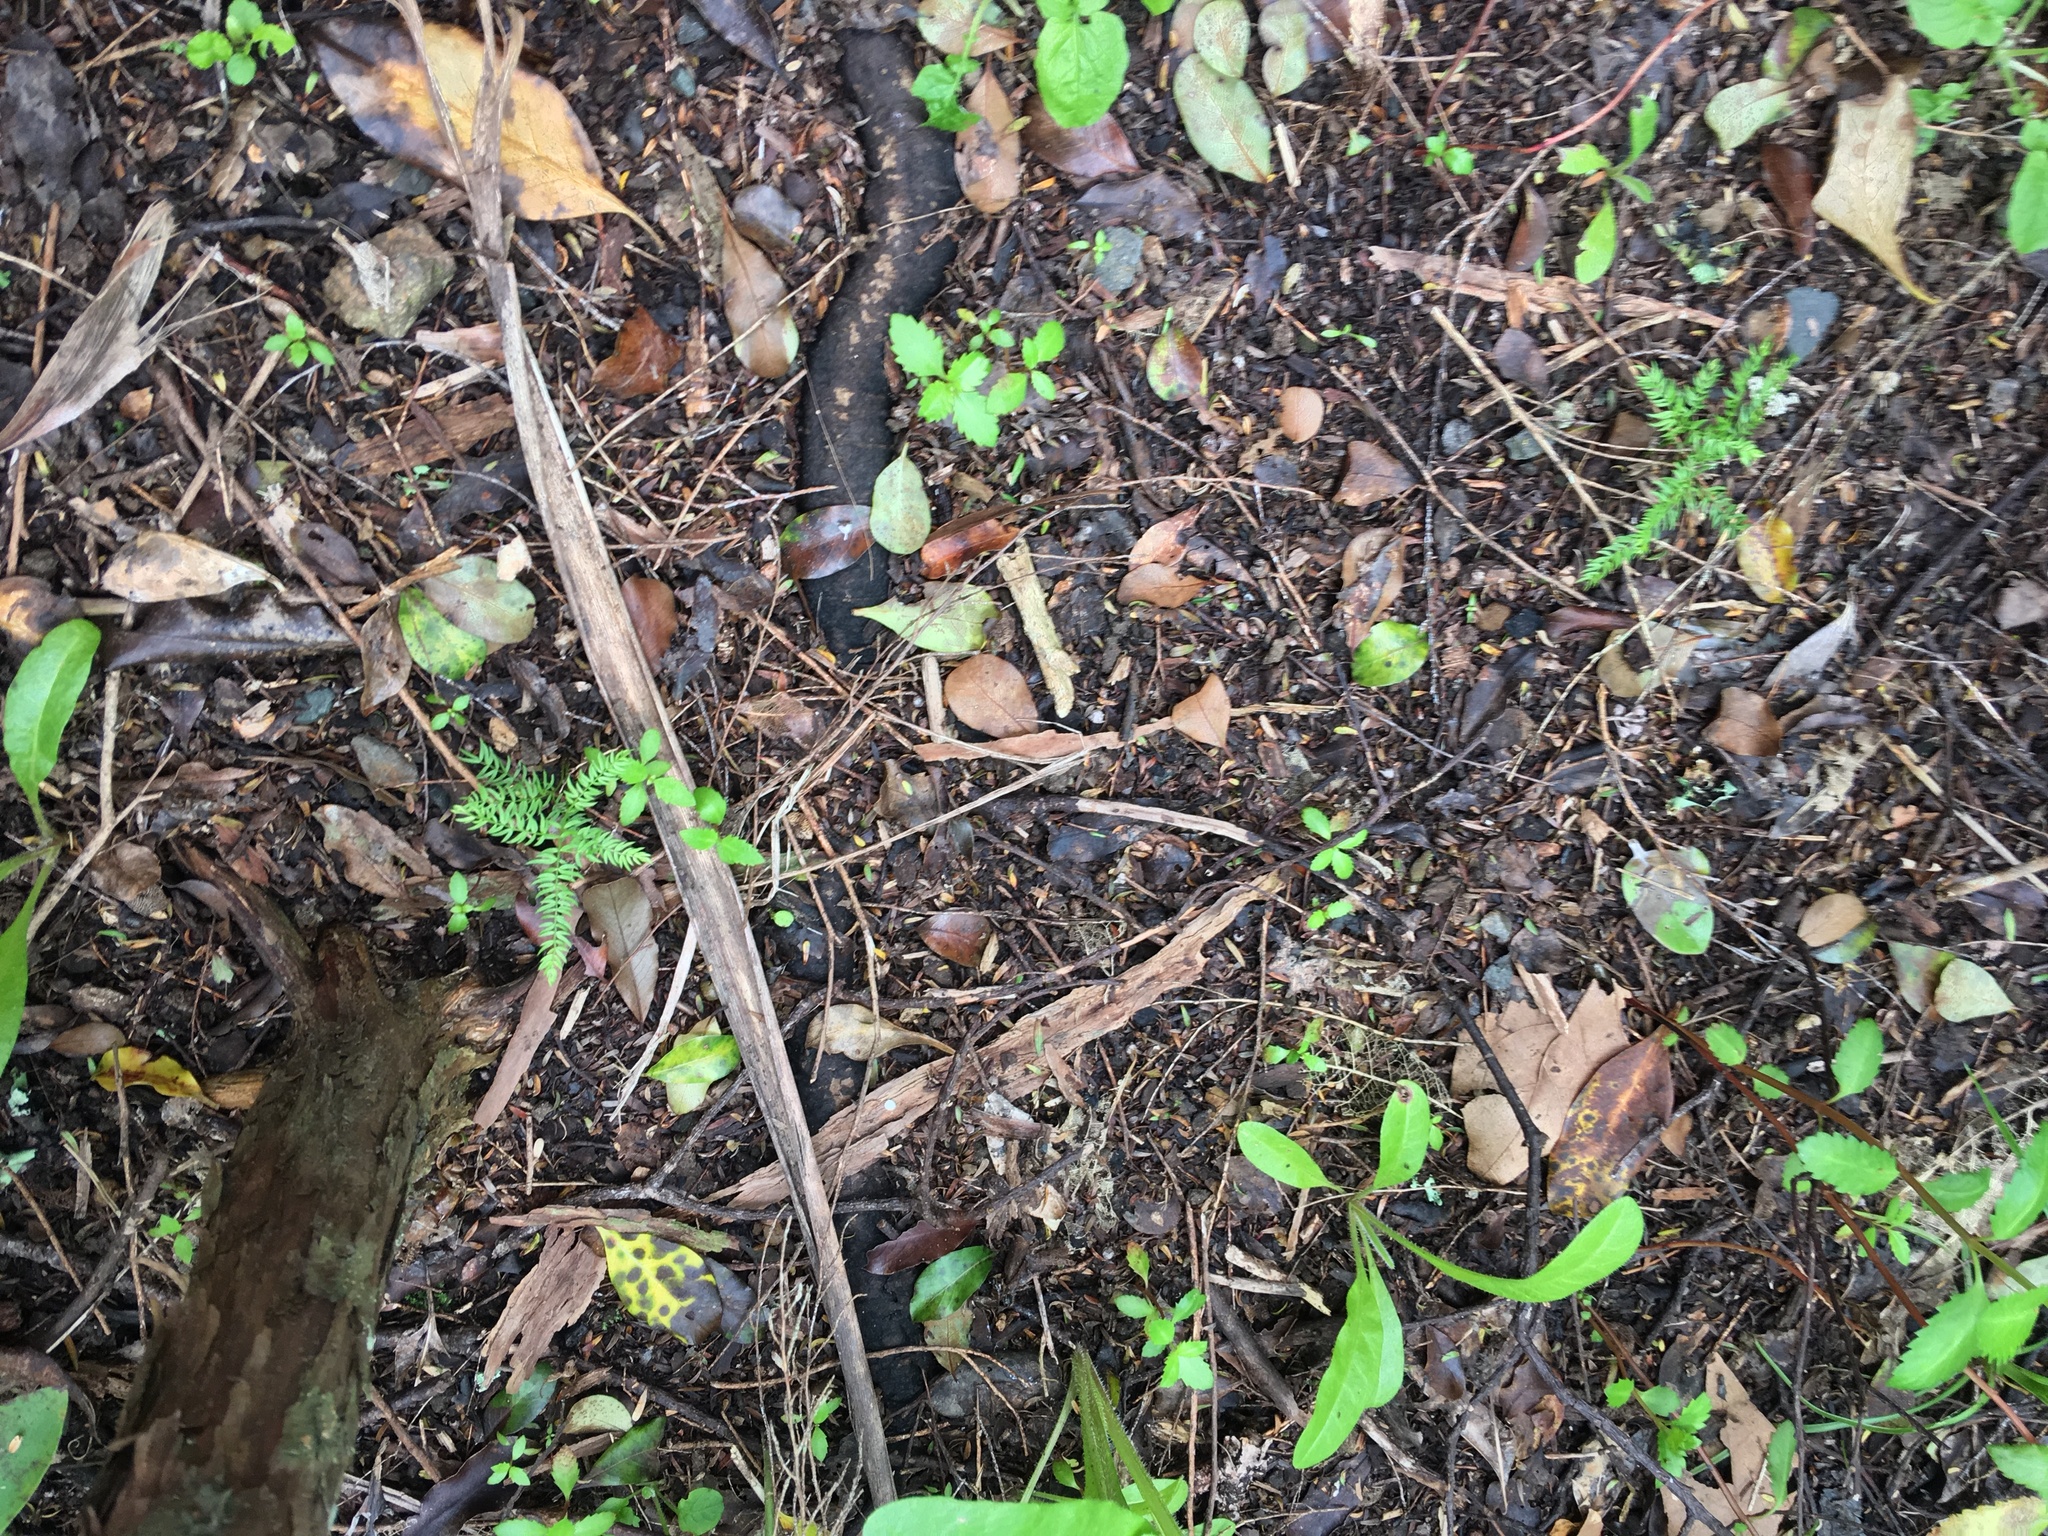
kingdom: Plantae
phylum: Tracheophyta
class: Liliopsida
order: Asparagales
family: Asparagaceae
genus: Asparagus
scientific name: Asparagus scandens
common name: Asparagus-fern
